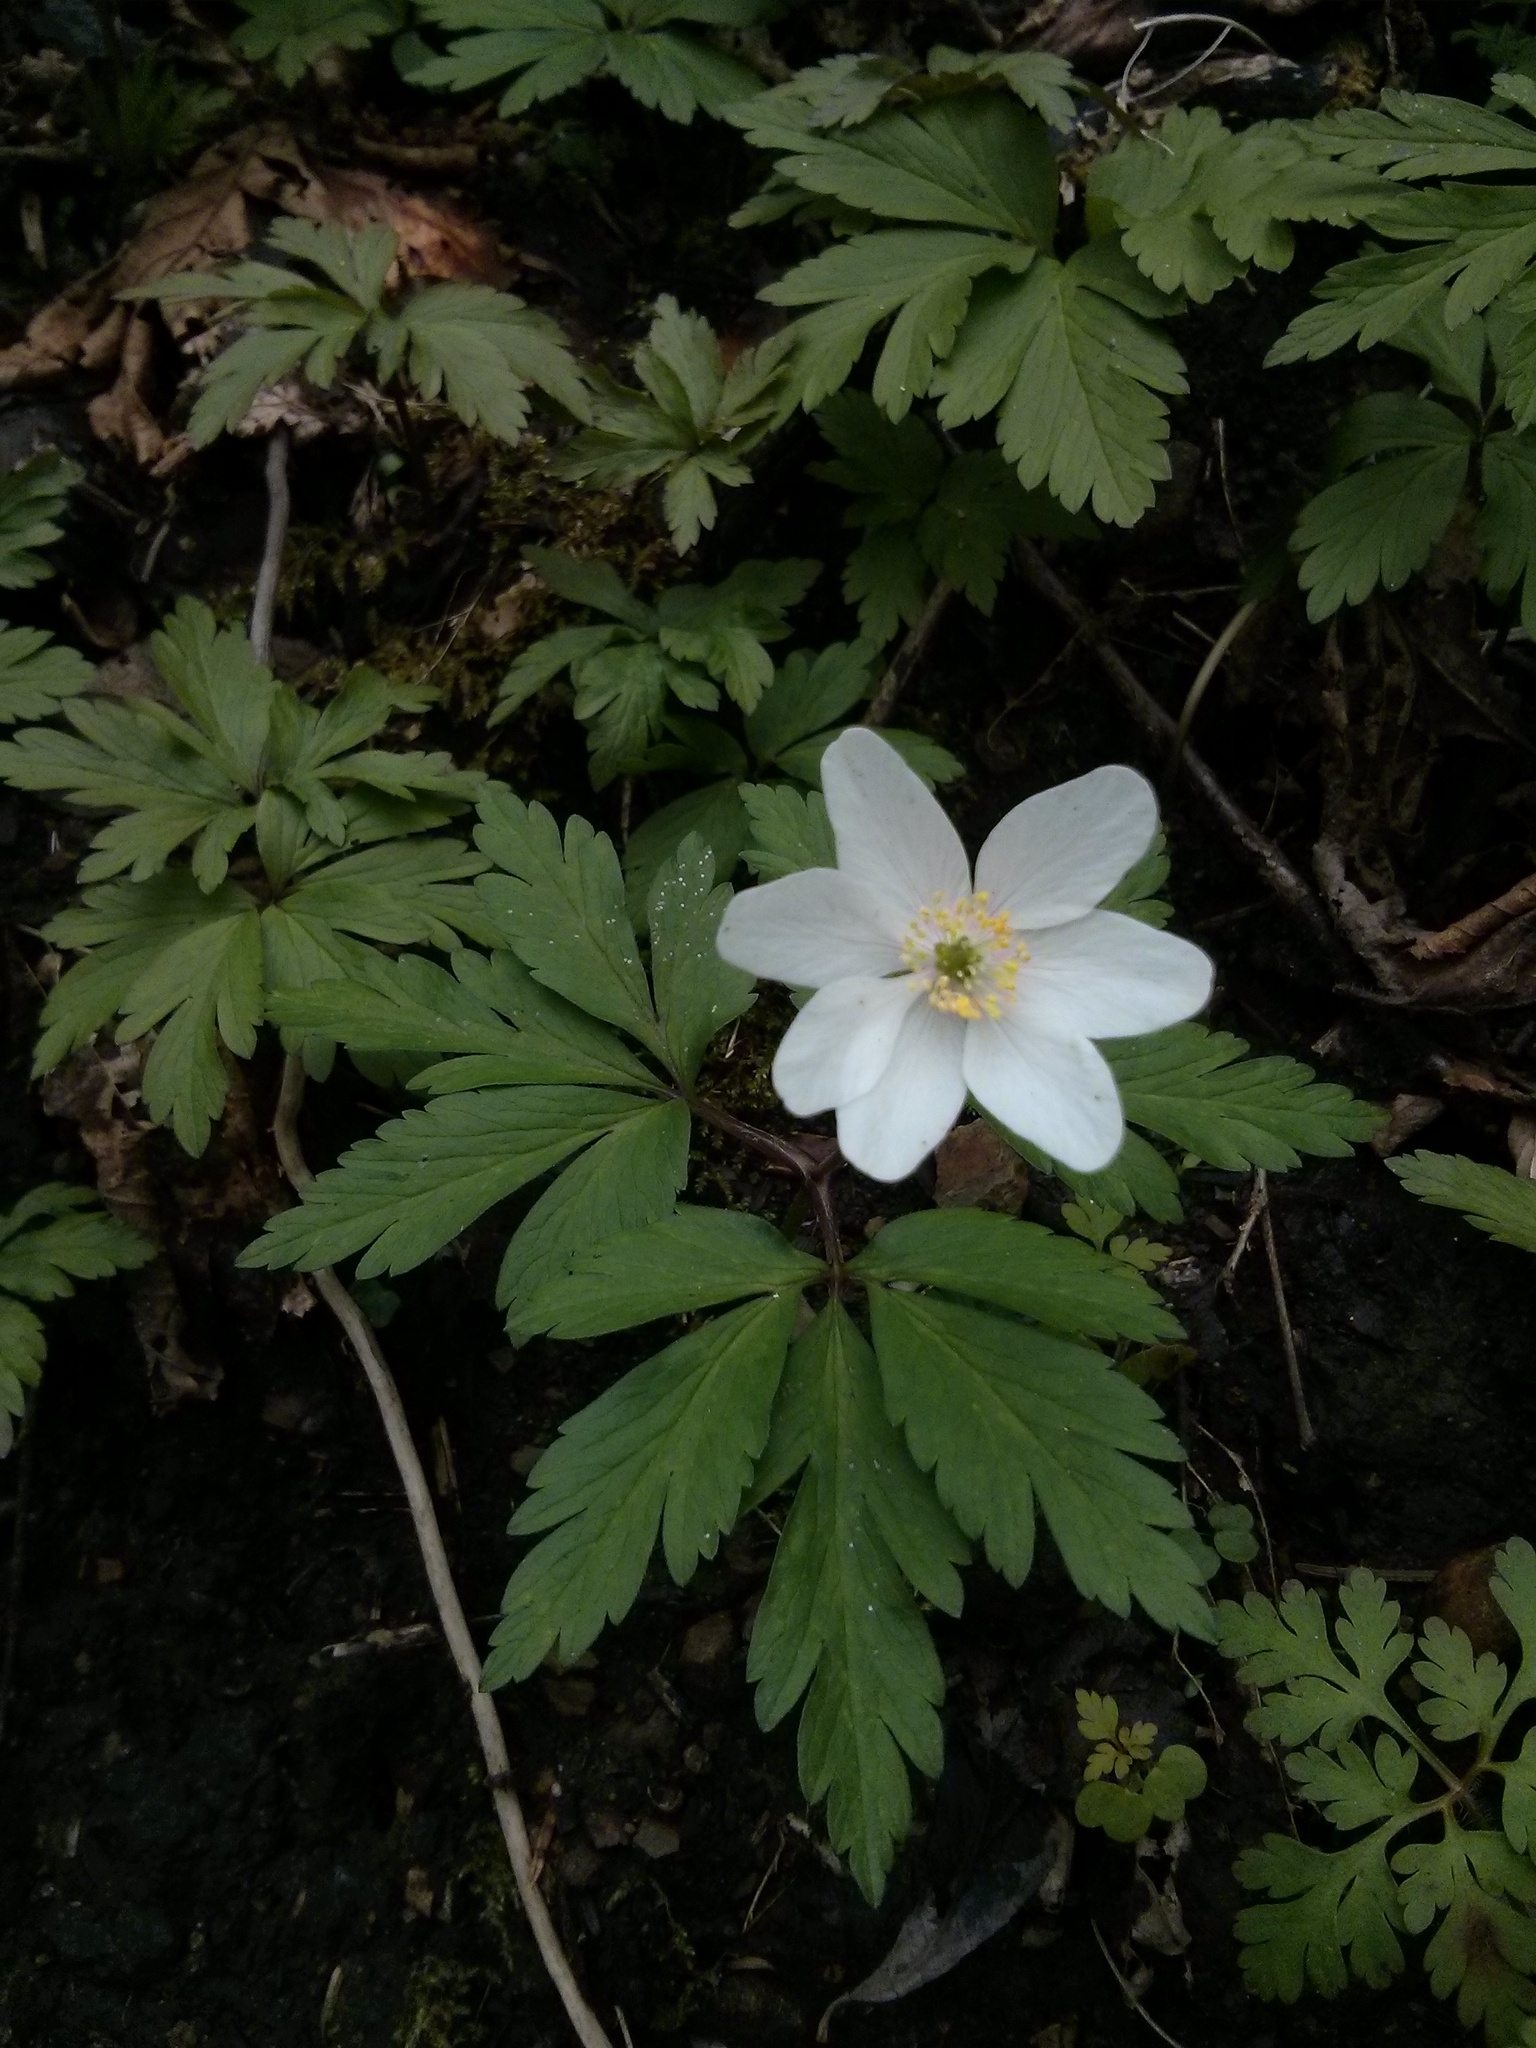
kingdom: Plantae
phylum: Tracheophyta
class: Magnoliopsida
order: Ranunculales
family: Ranunculaceae
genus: Anemone
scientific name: Anemone nemorosa
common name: Wood anemone
